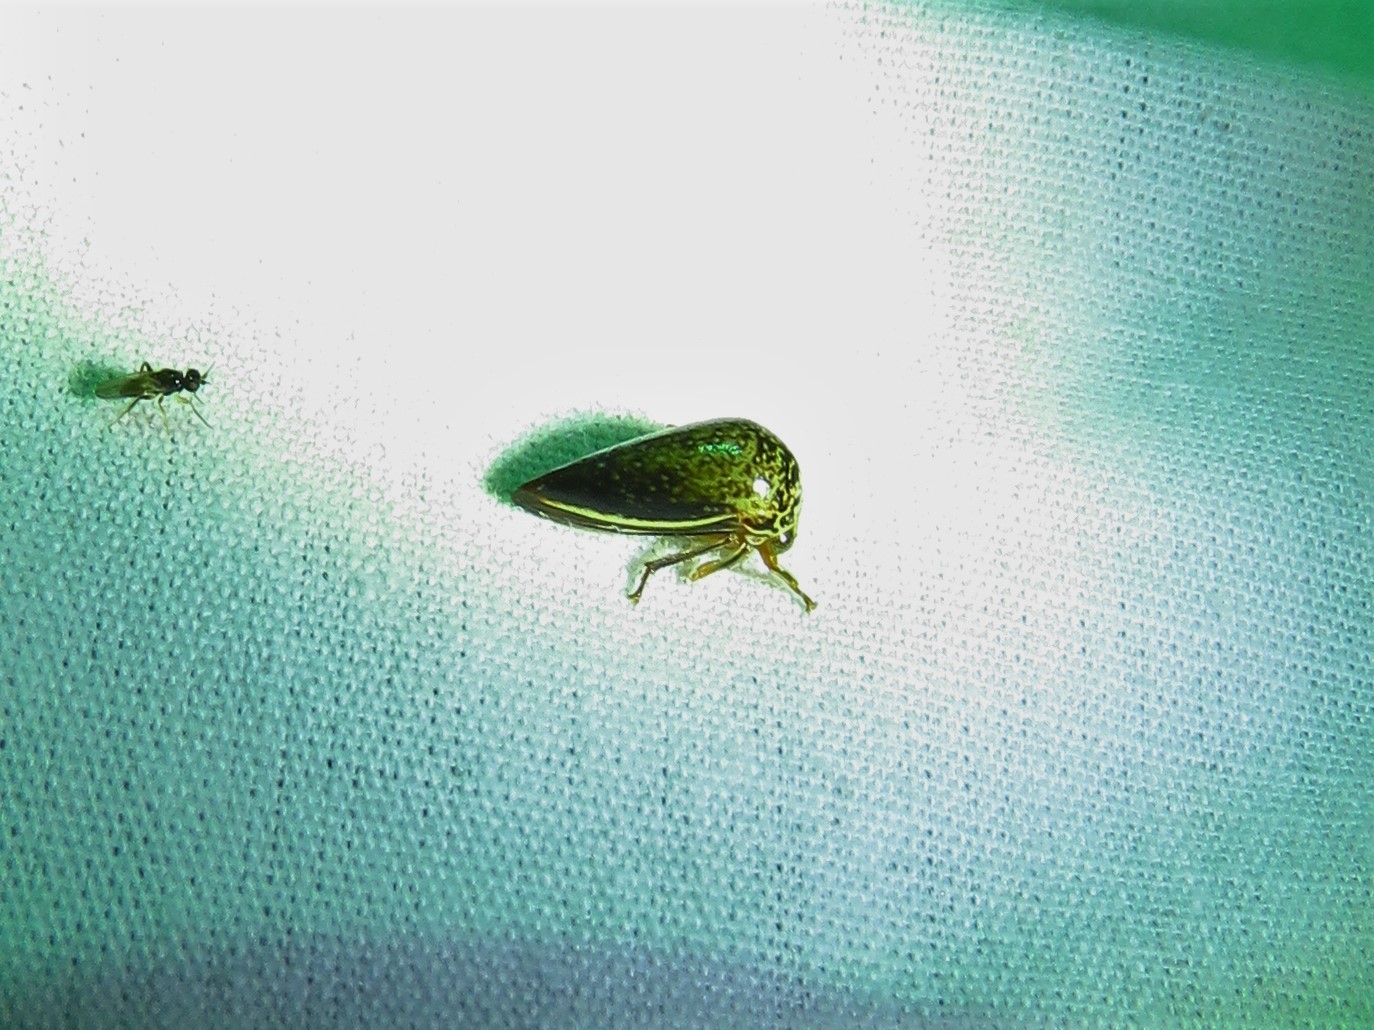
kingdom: Animalia
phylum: Arthropoda
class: Insecta
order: Hemiptera
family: Membracidae
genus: Stictopelta
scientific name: Stictopelta marmorata
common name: Treehopper
